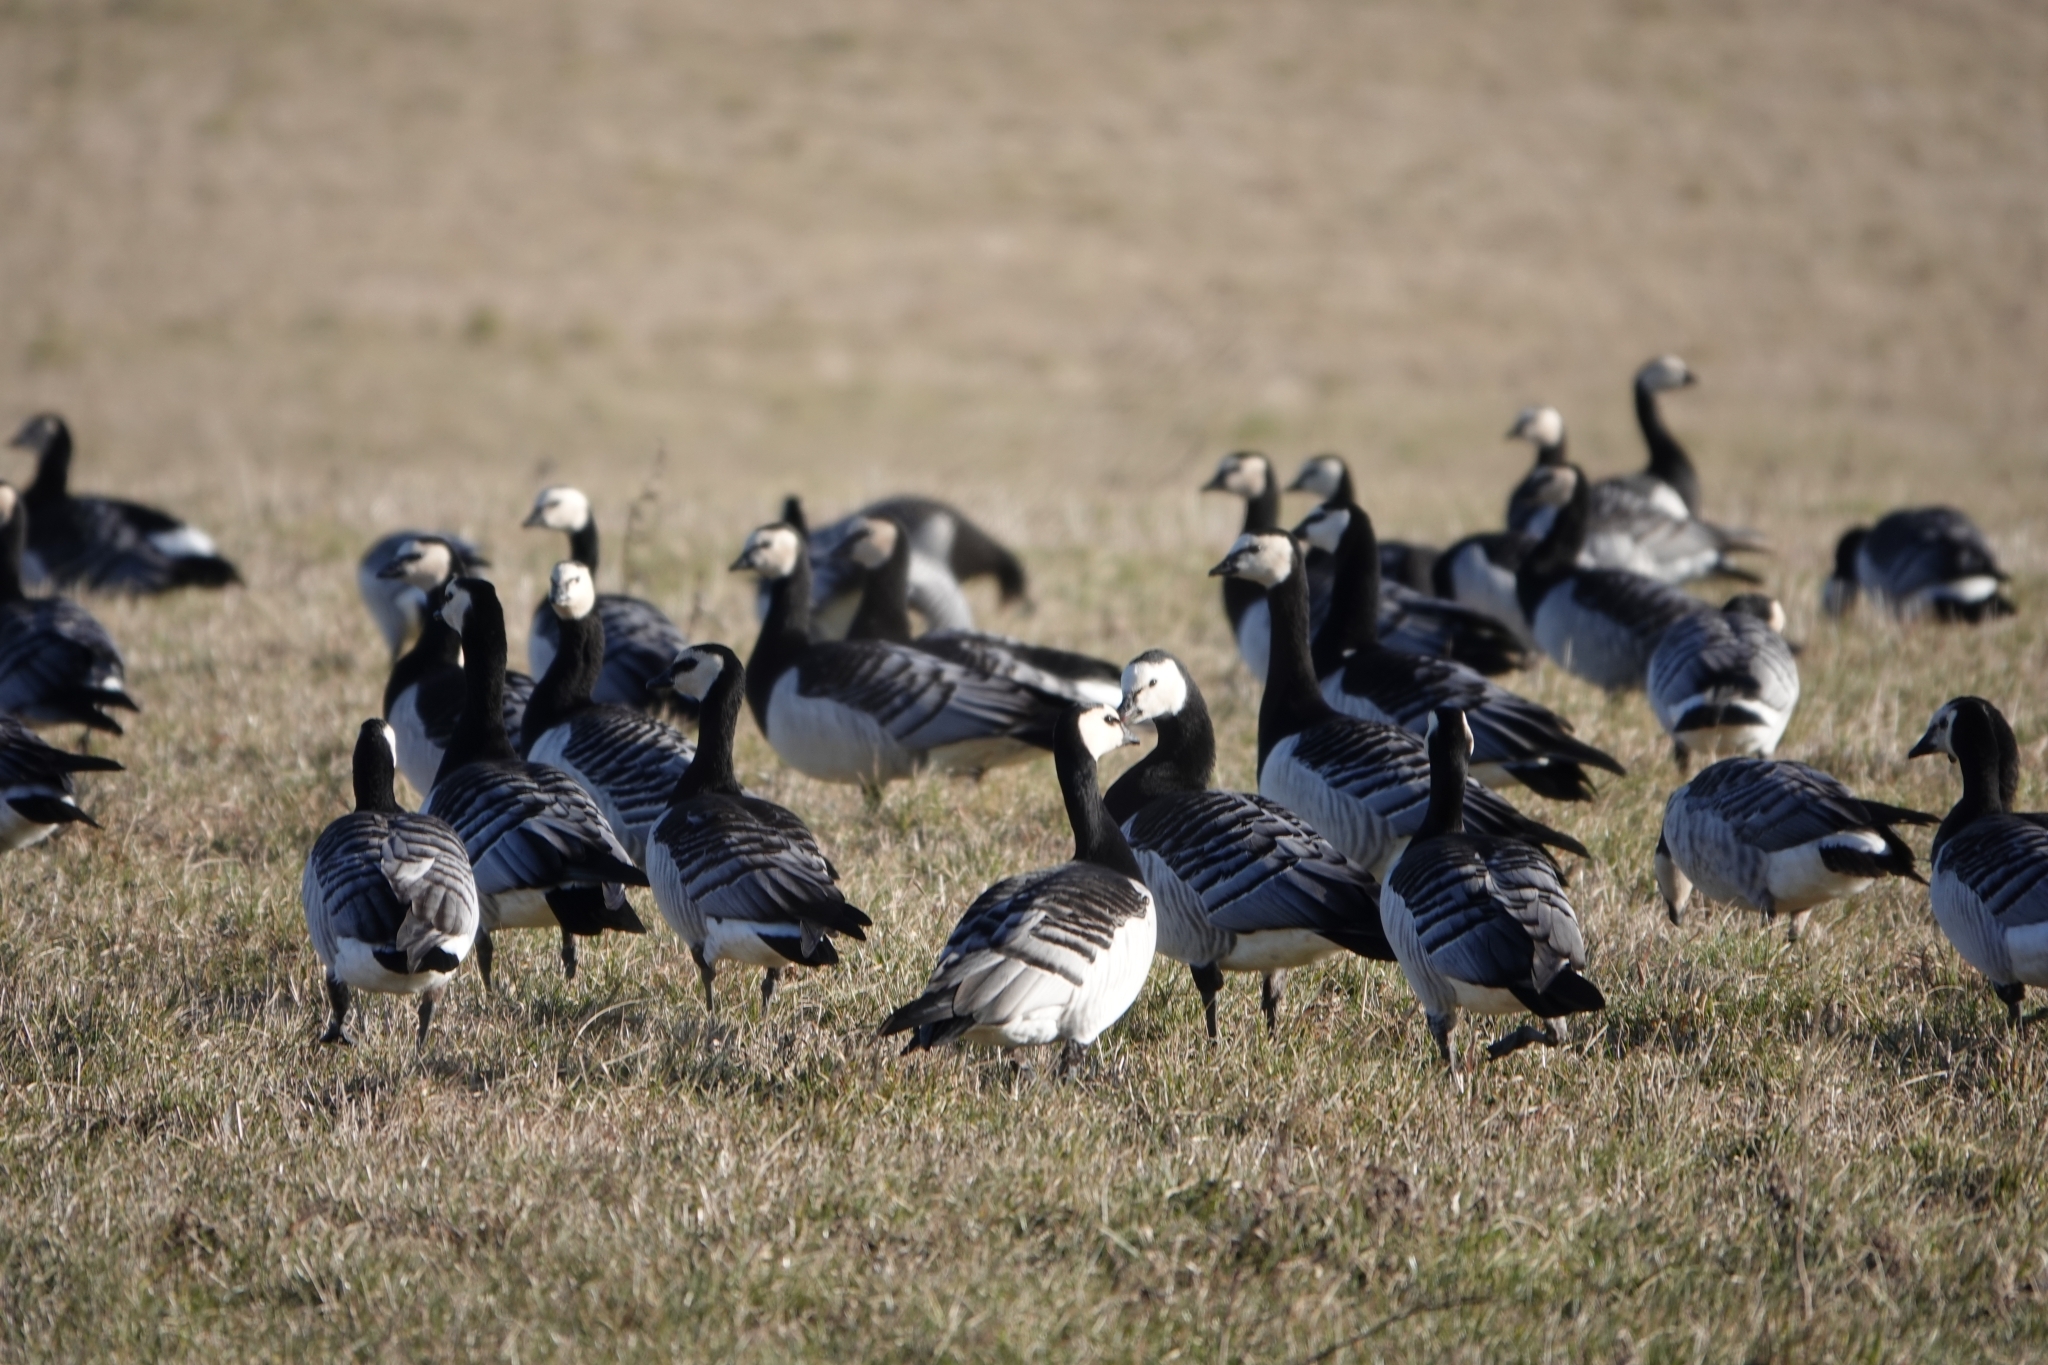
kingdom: Animalia
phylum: Chordata
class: Aves
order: Anseriformes
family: Anatidae
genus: Branta
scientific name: Branta leucopsis
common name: Barnacle goose
